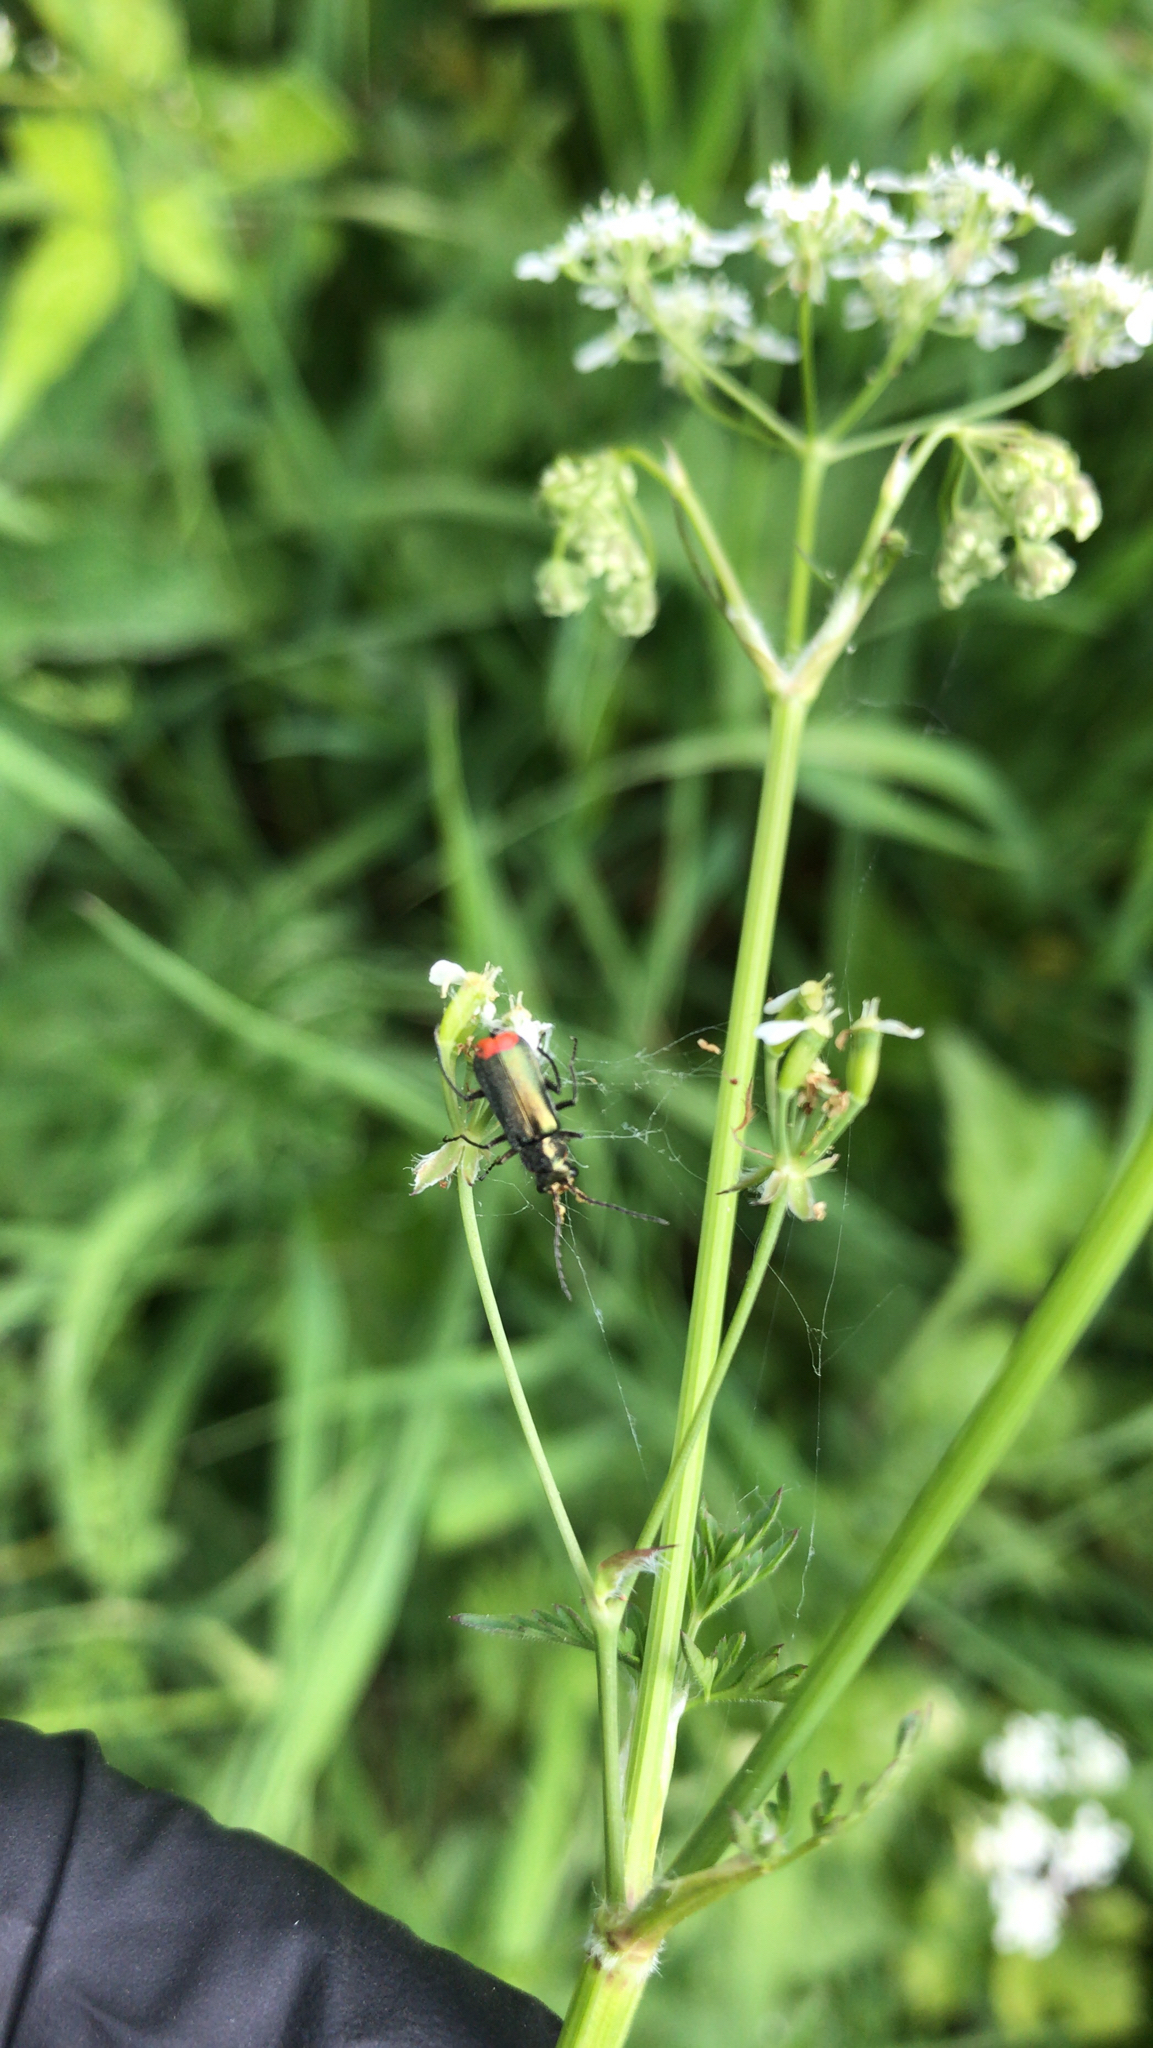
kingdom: Animalia
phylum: Arthropoda
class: Insecta
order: Coleoptera
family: Melyridae
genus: Malachius
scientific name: Malachius bipustulatus
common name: Malachite beetle
